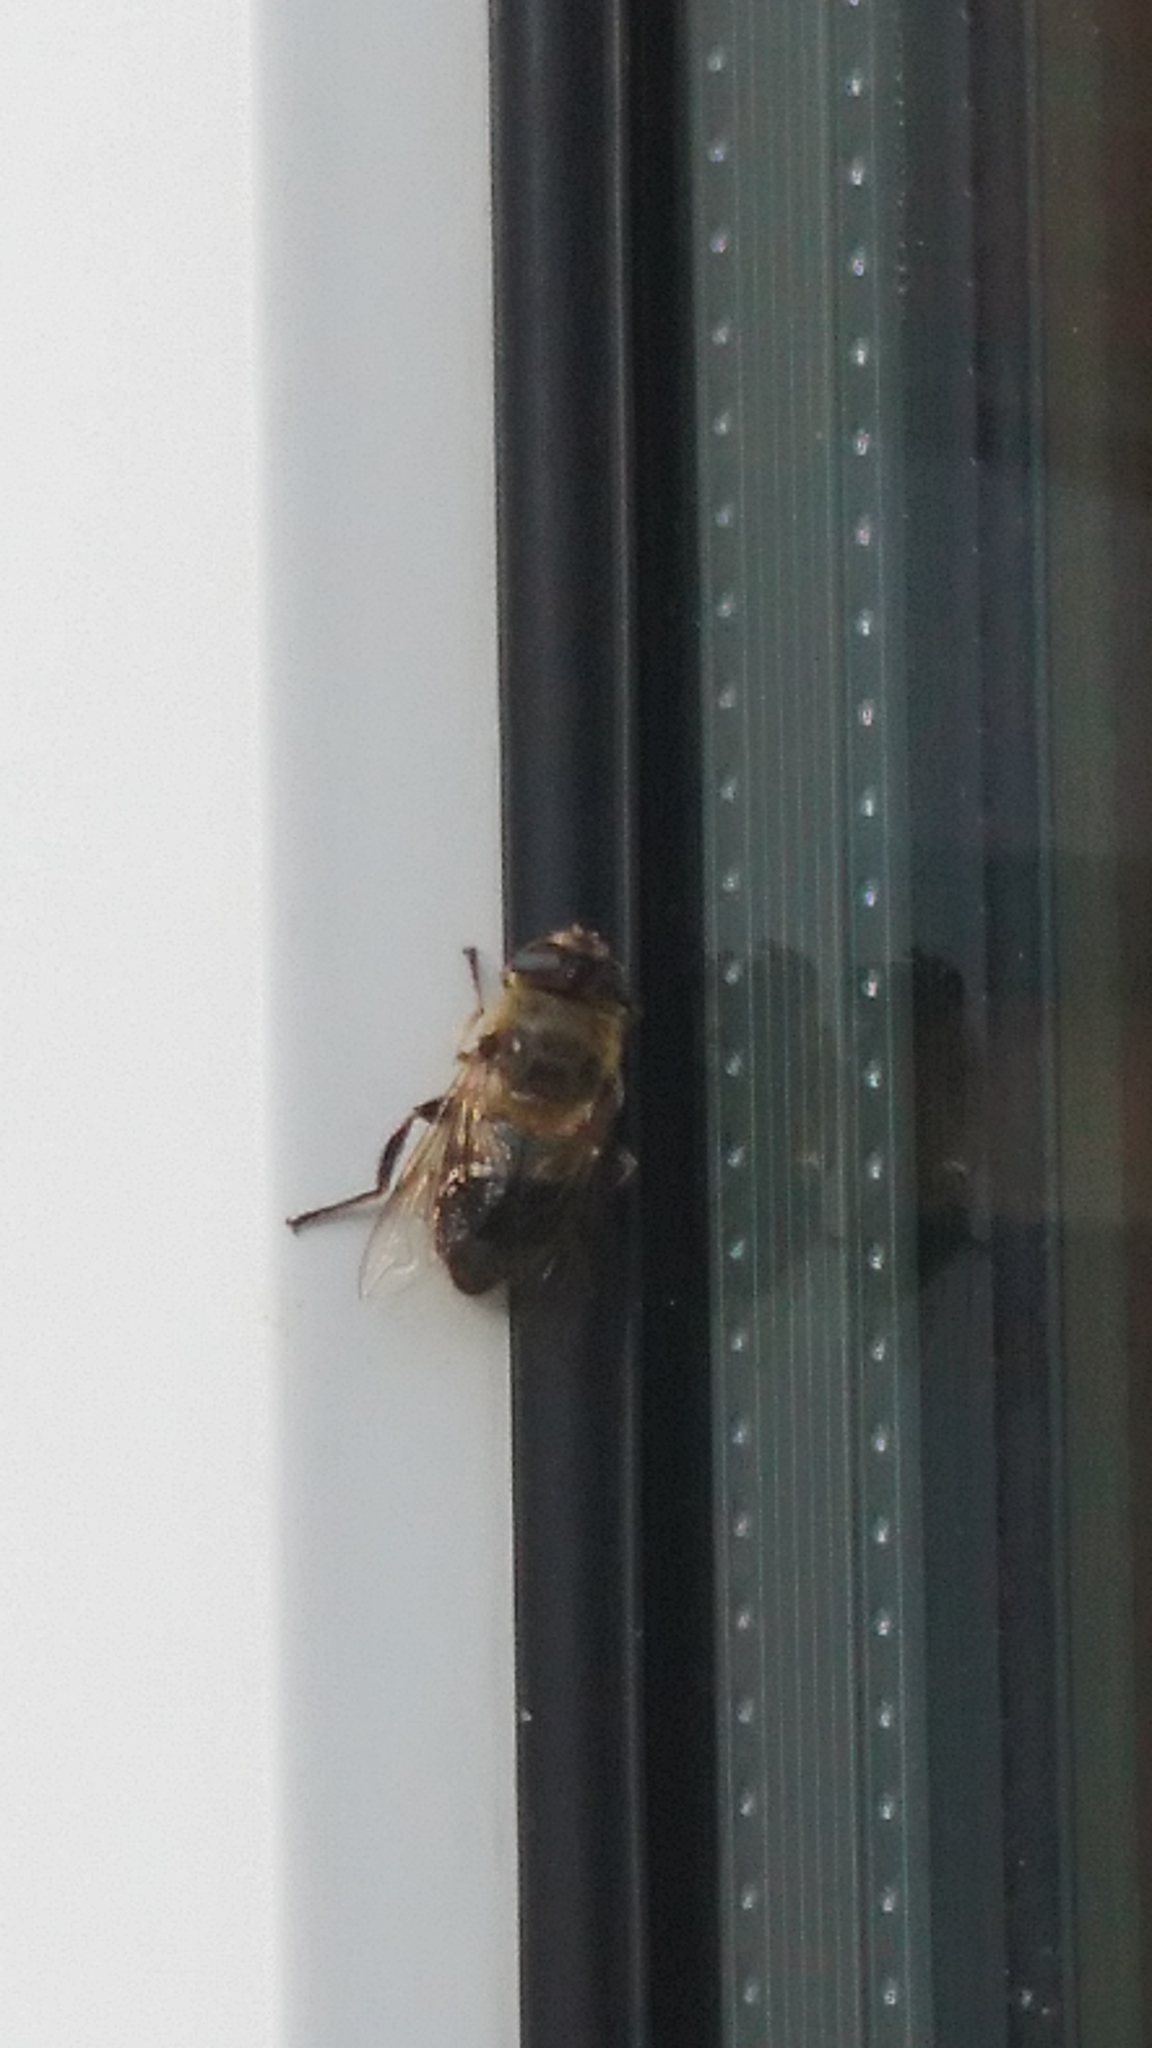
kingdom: Animalia
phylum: Arthropoda
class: Insecta
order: Diptera
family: Syrphidae
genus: Eristalis
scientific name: Eristalis tenax
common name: Drone fly
